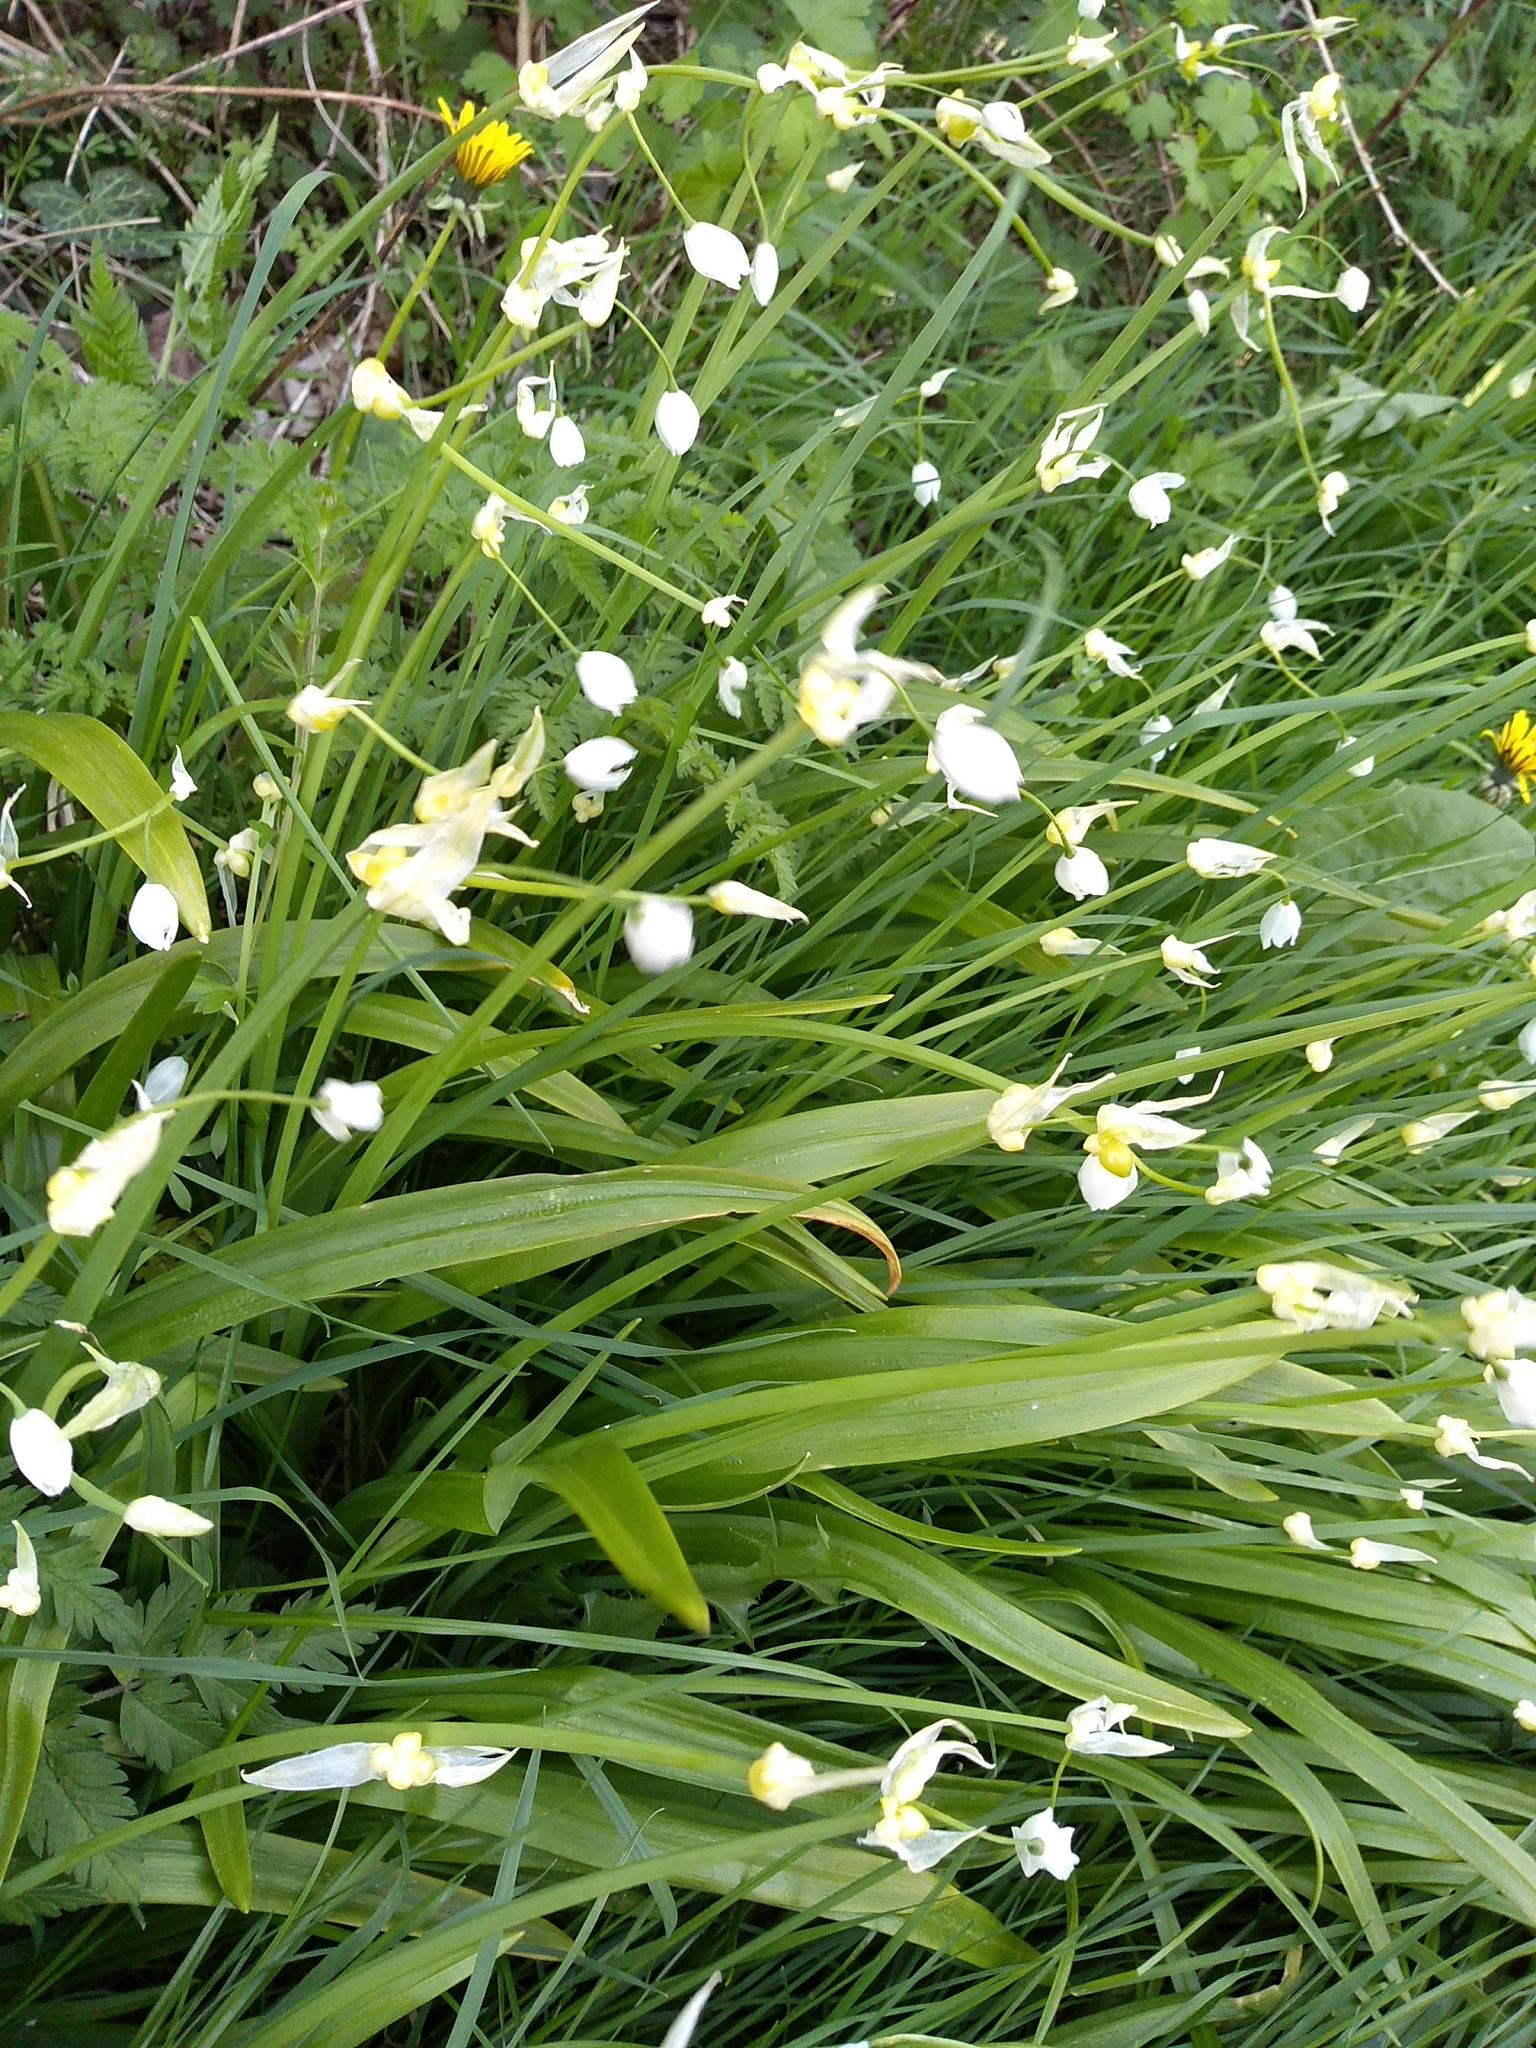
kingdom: Plantae
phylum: Tracheophyta
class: Liliopsida
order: Asparagales
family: Amaryllidaceae
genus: Allium
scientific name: Allium paradoxum
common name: Few-flowered garlic
